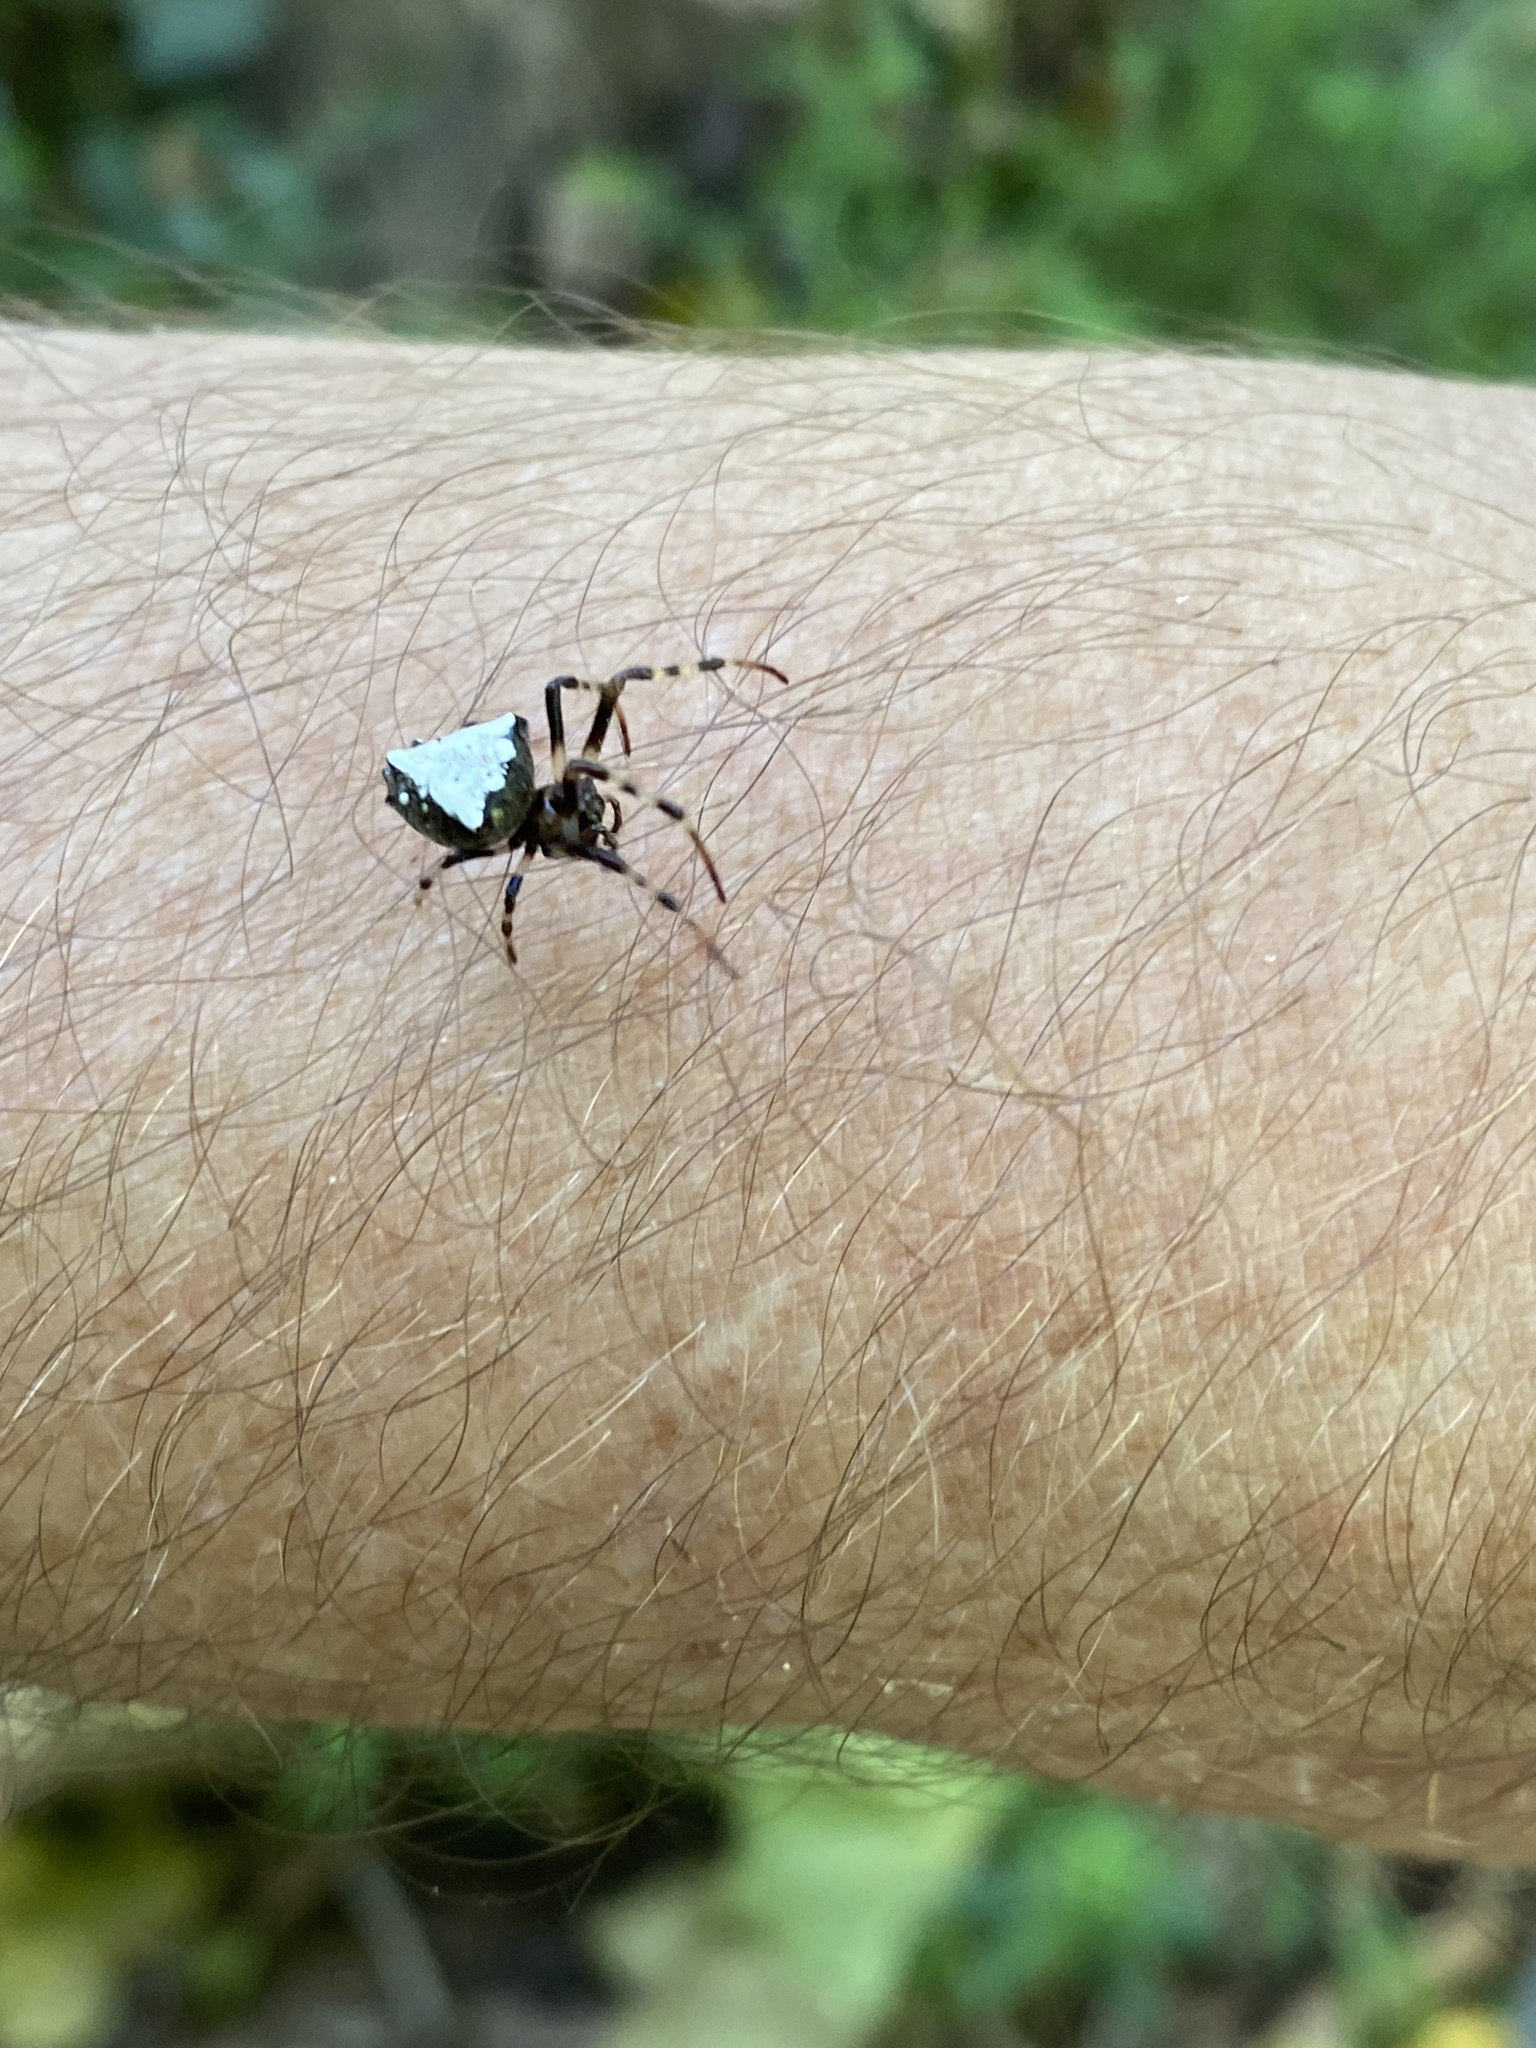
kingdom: Animalia
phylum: Arthropoda
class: Arachnida
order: Araneae
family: Araneidae
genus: Verrucosa
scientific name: Verrucosa arenata
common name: Orb weavers
